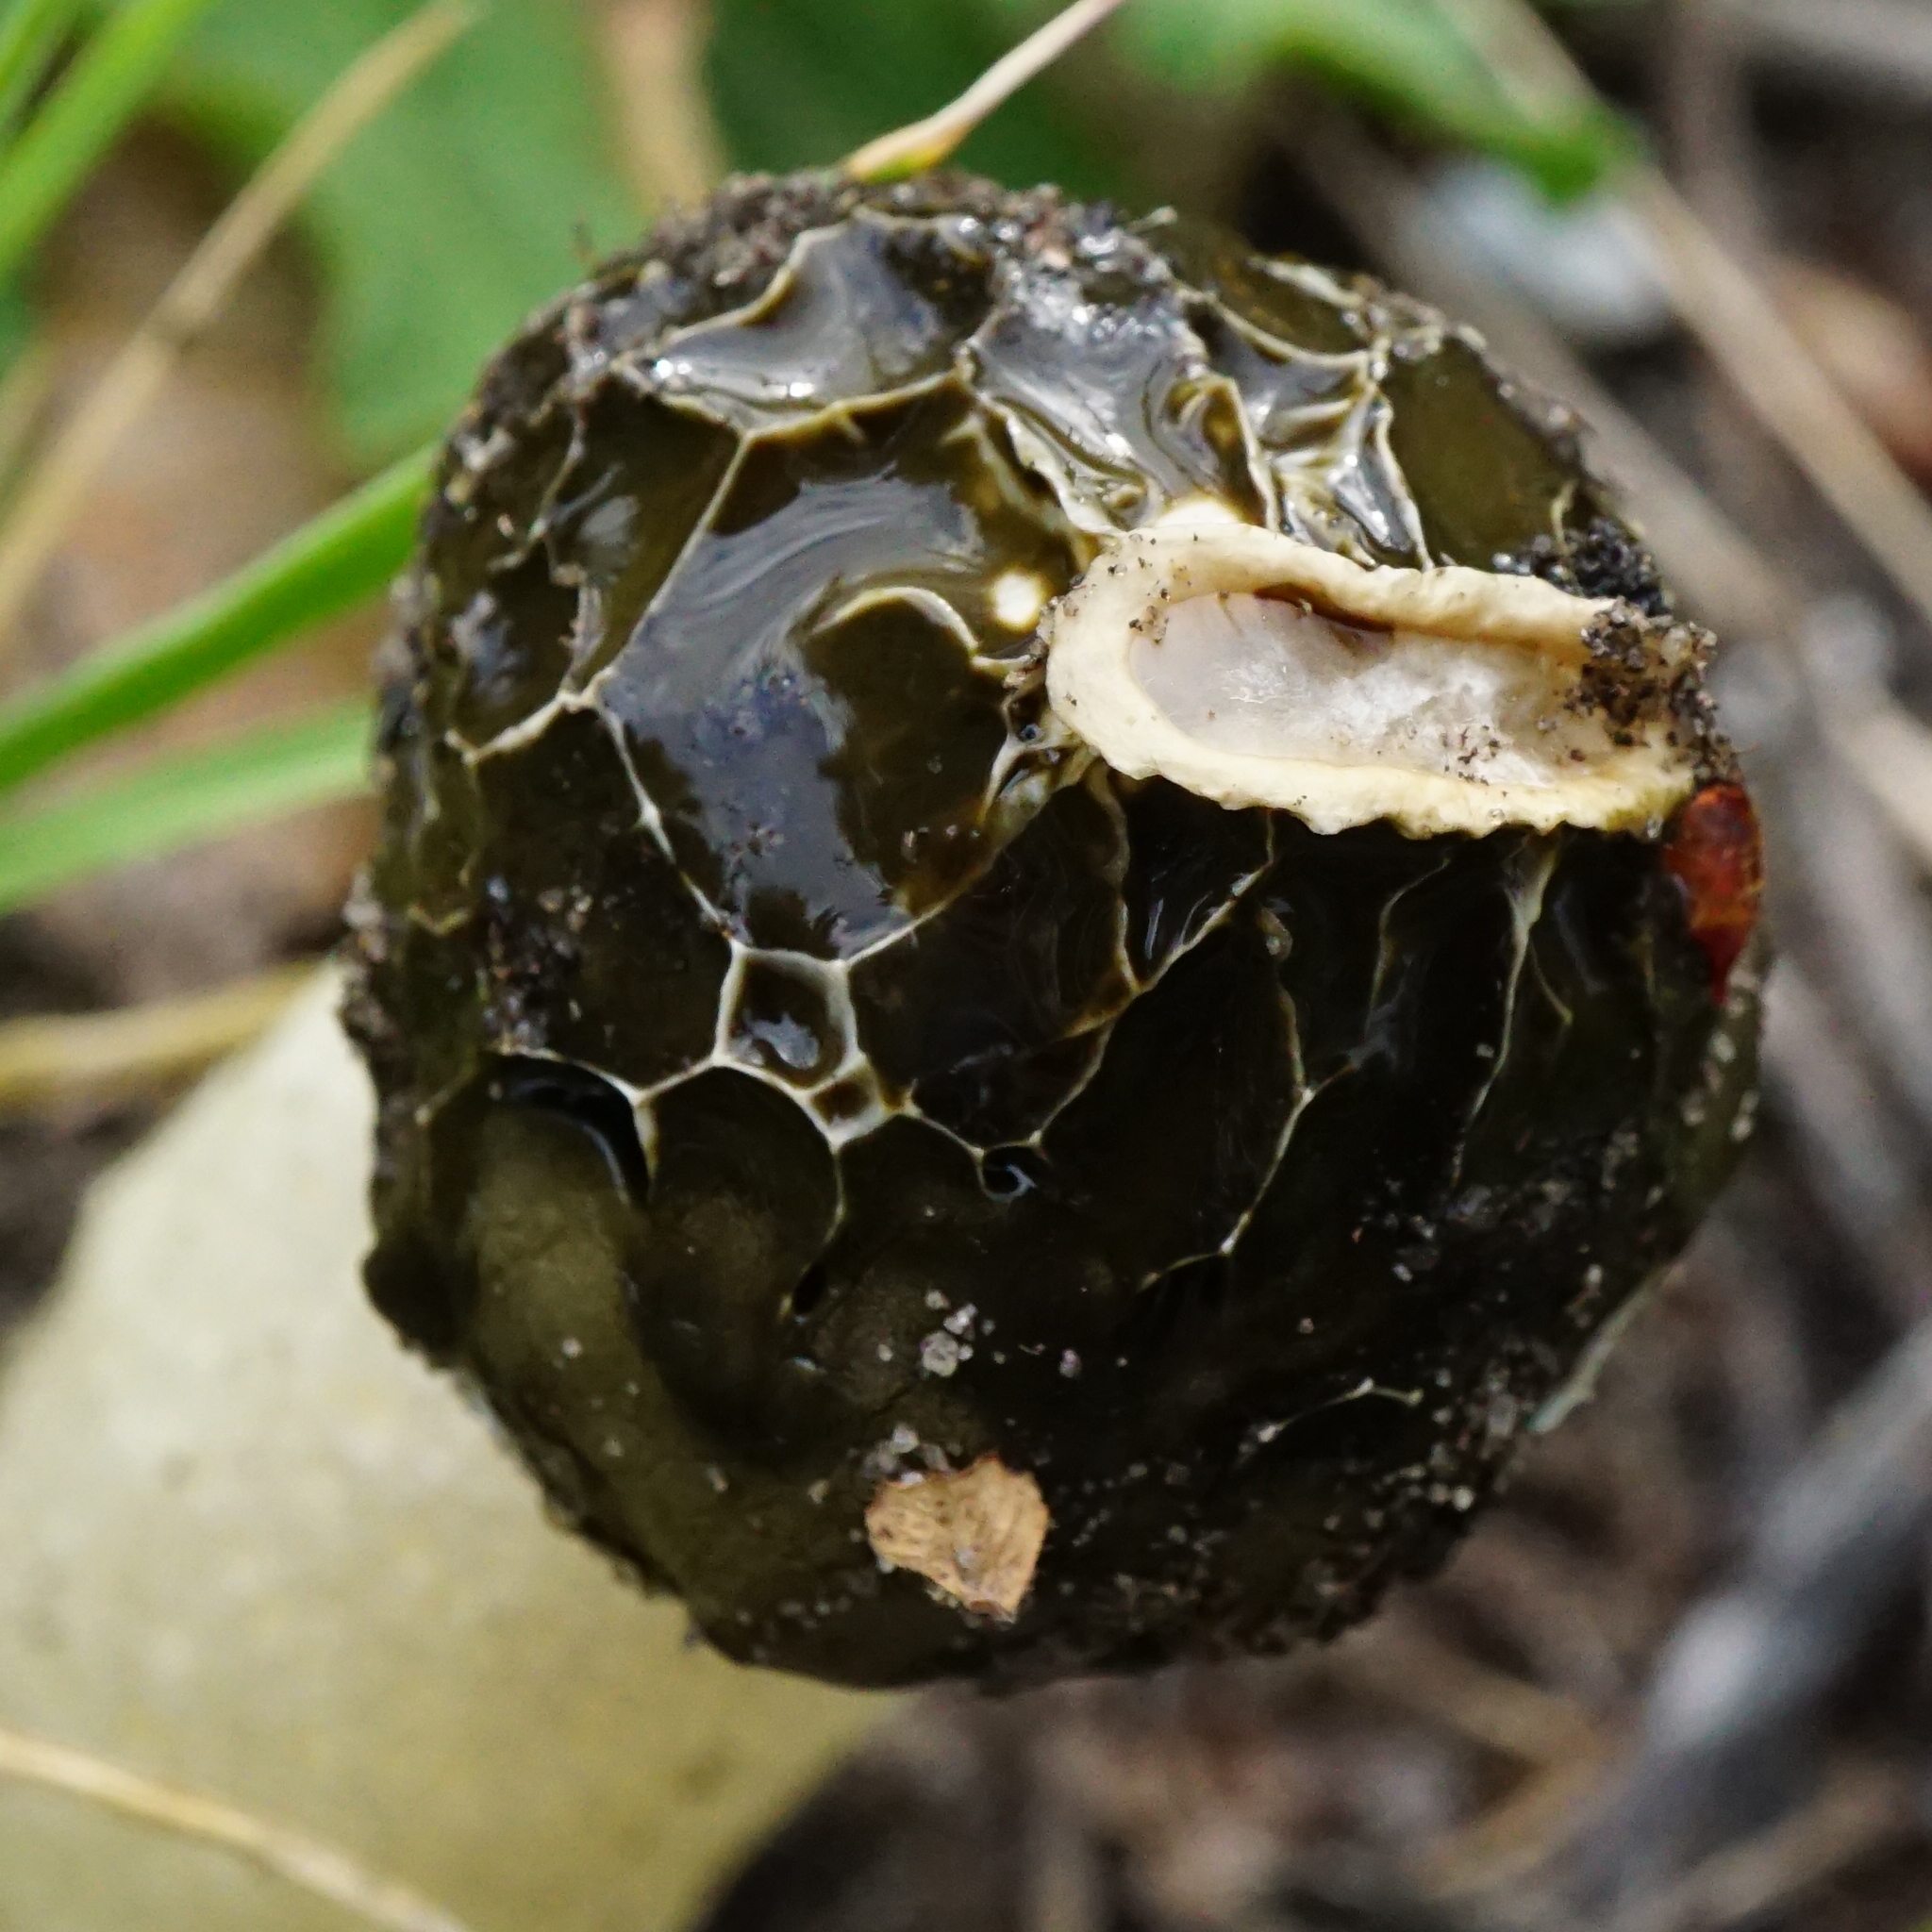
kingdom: Fungi
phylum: Basidiomycota
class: Agaricomycetes
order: Phallales
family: Phallaceae
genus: Phallus
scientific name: Phallus impudicus
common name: Common stinkhorn
